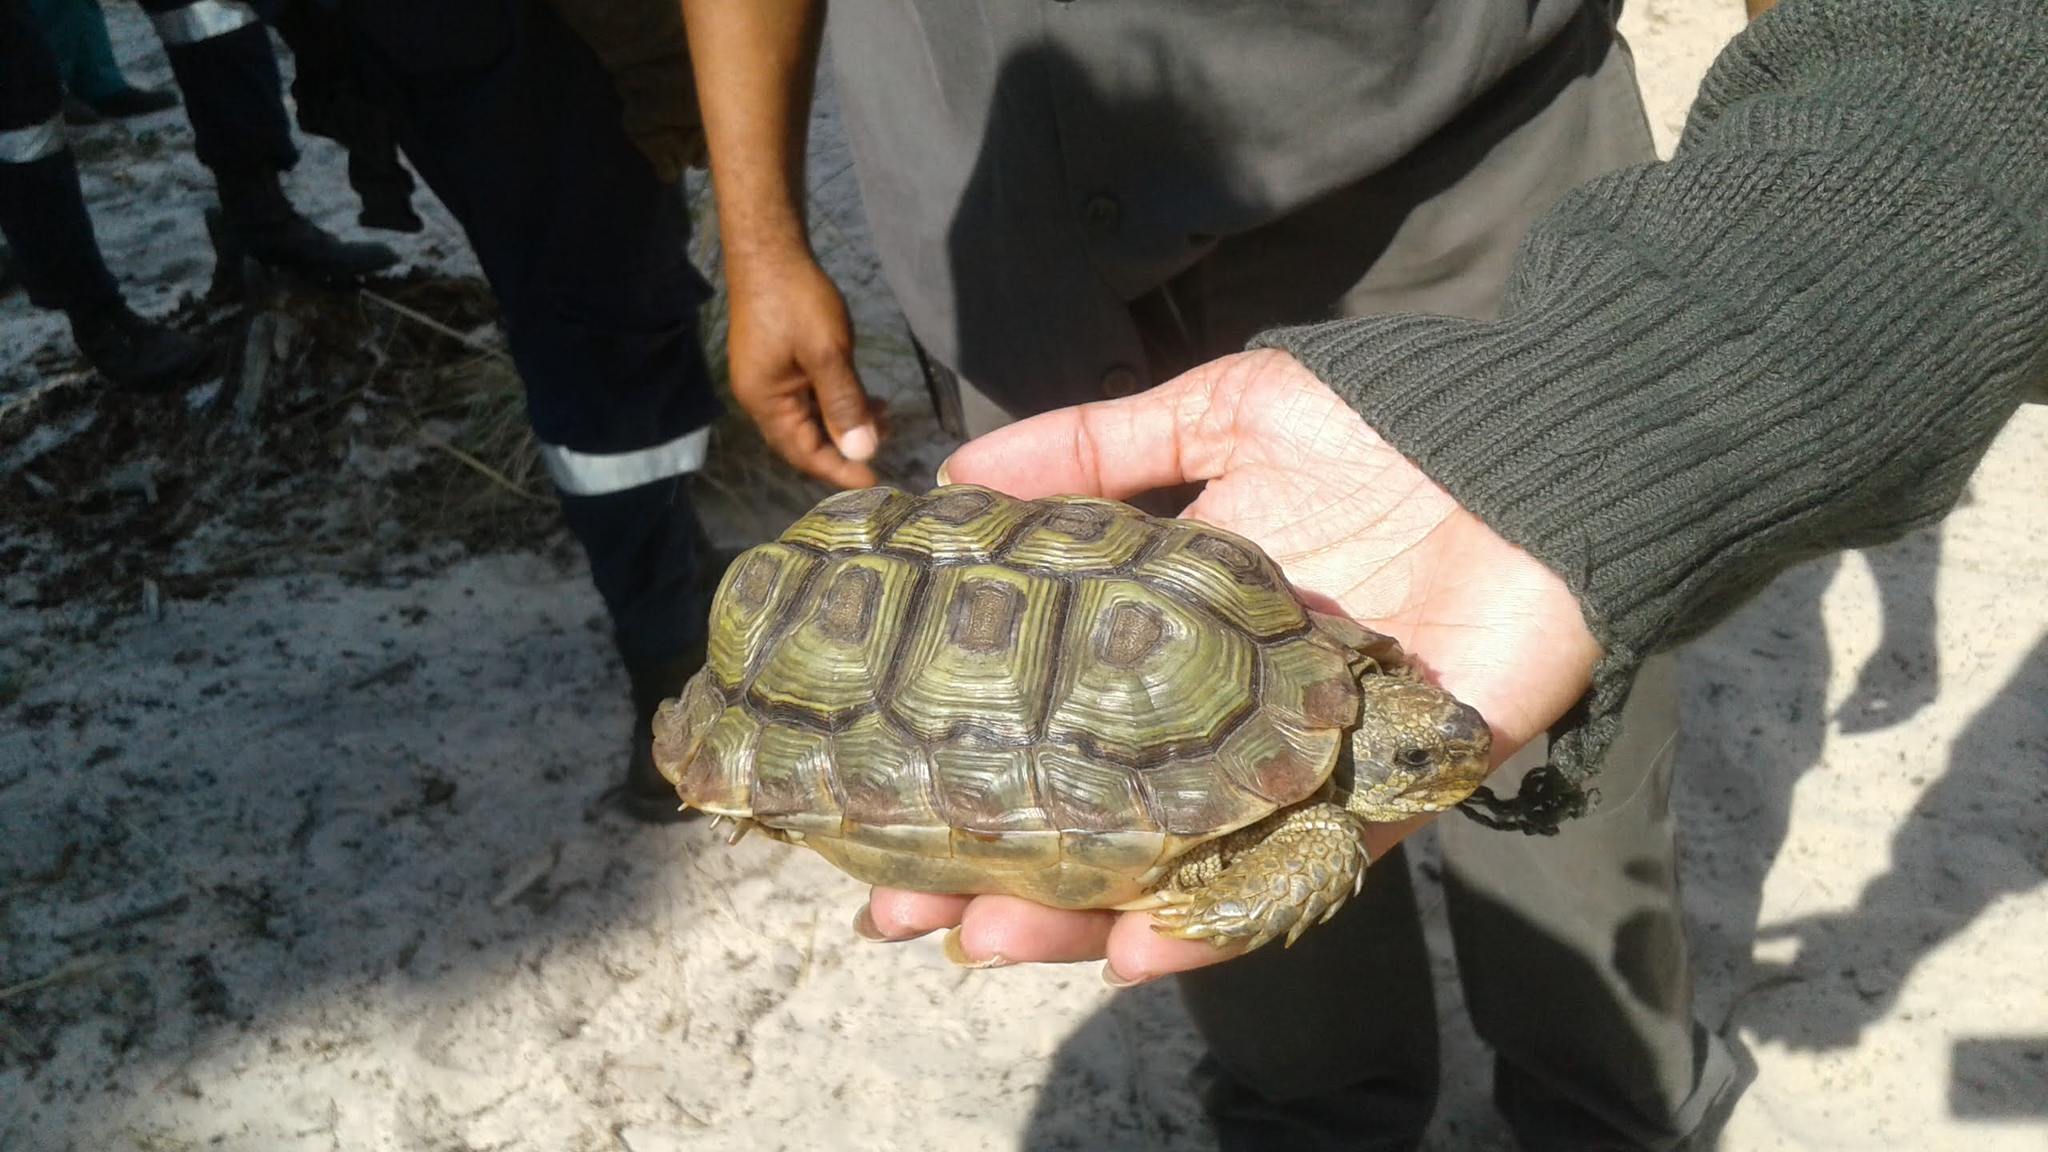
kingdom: Animalia
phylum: Chordata
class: Testudines
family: Testudinidae
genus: Homopus
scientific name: Homopus areolatus
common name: Parrot-beaked tortoise
